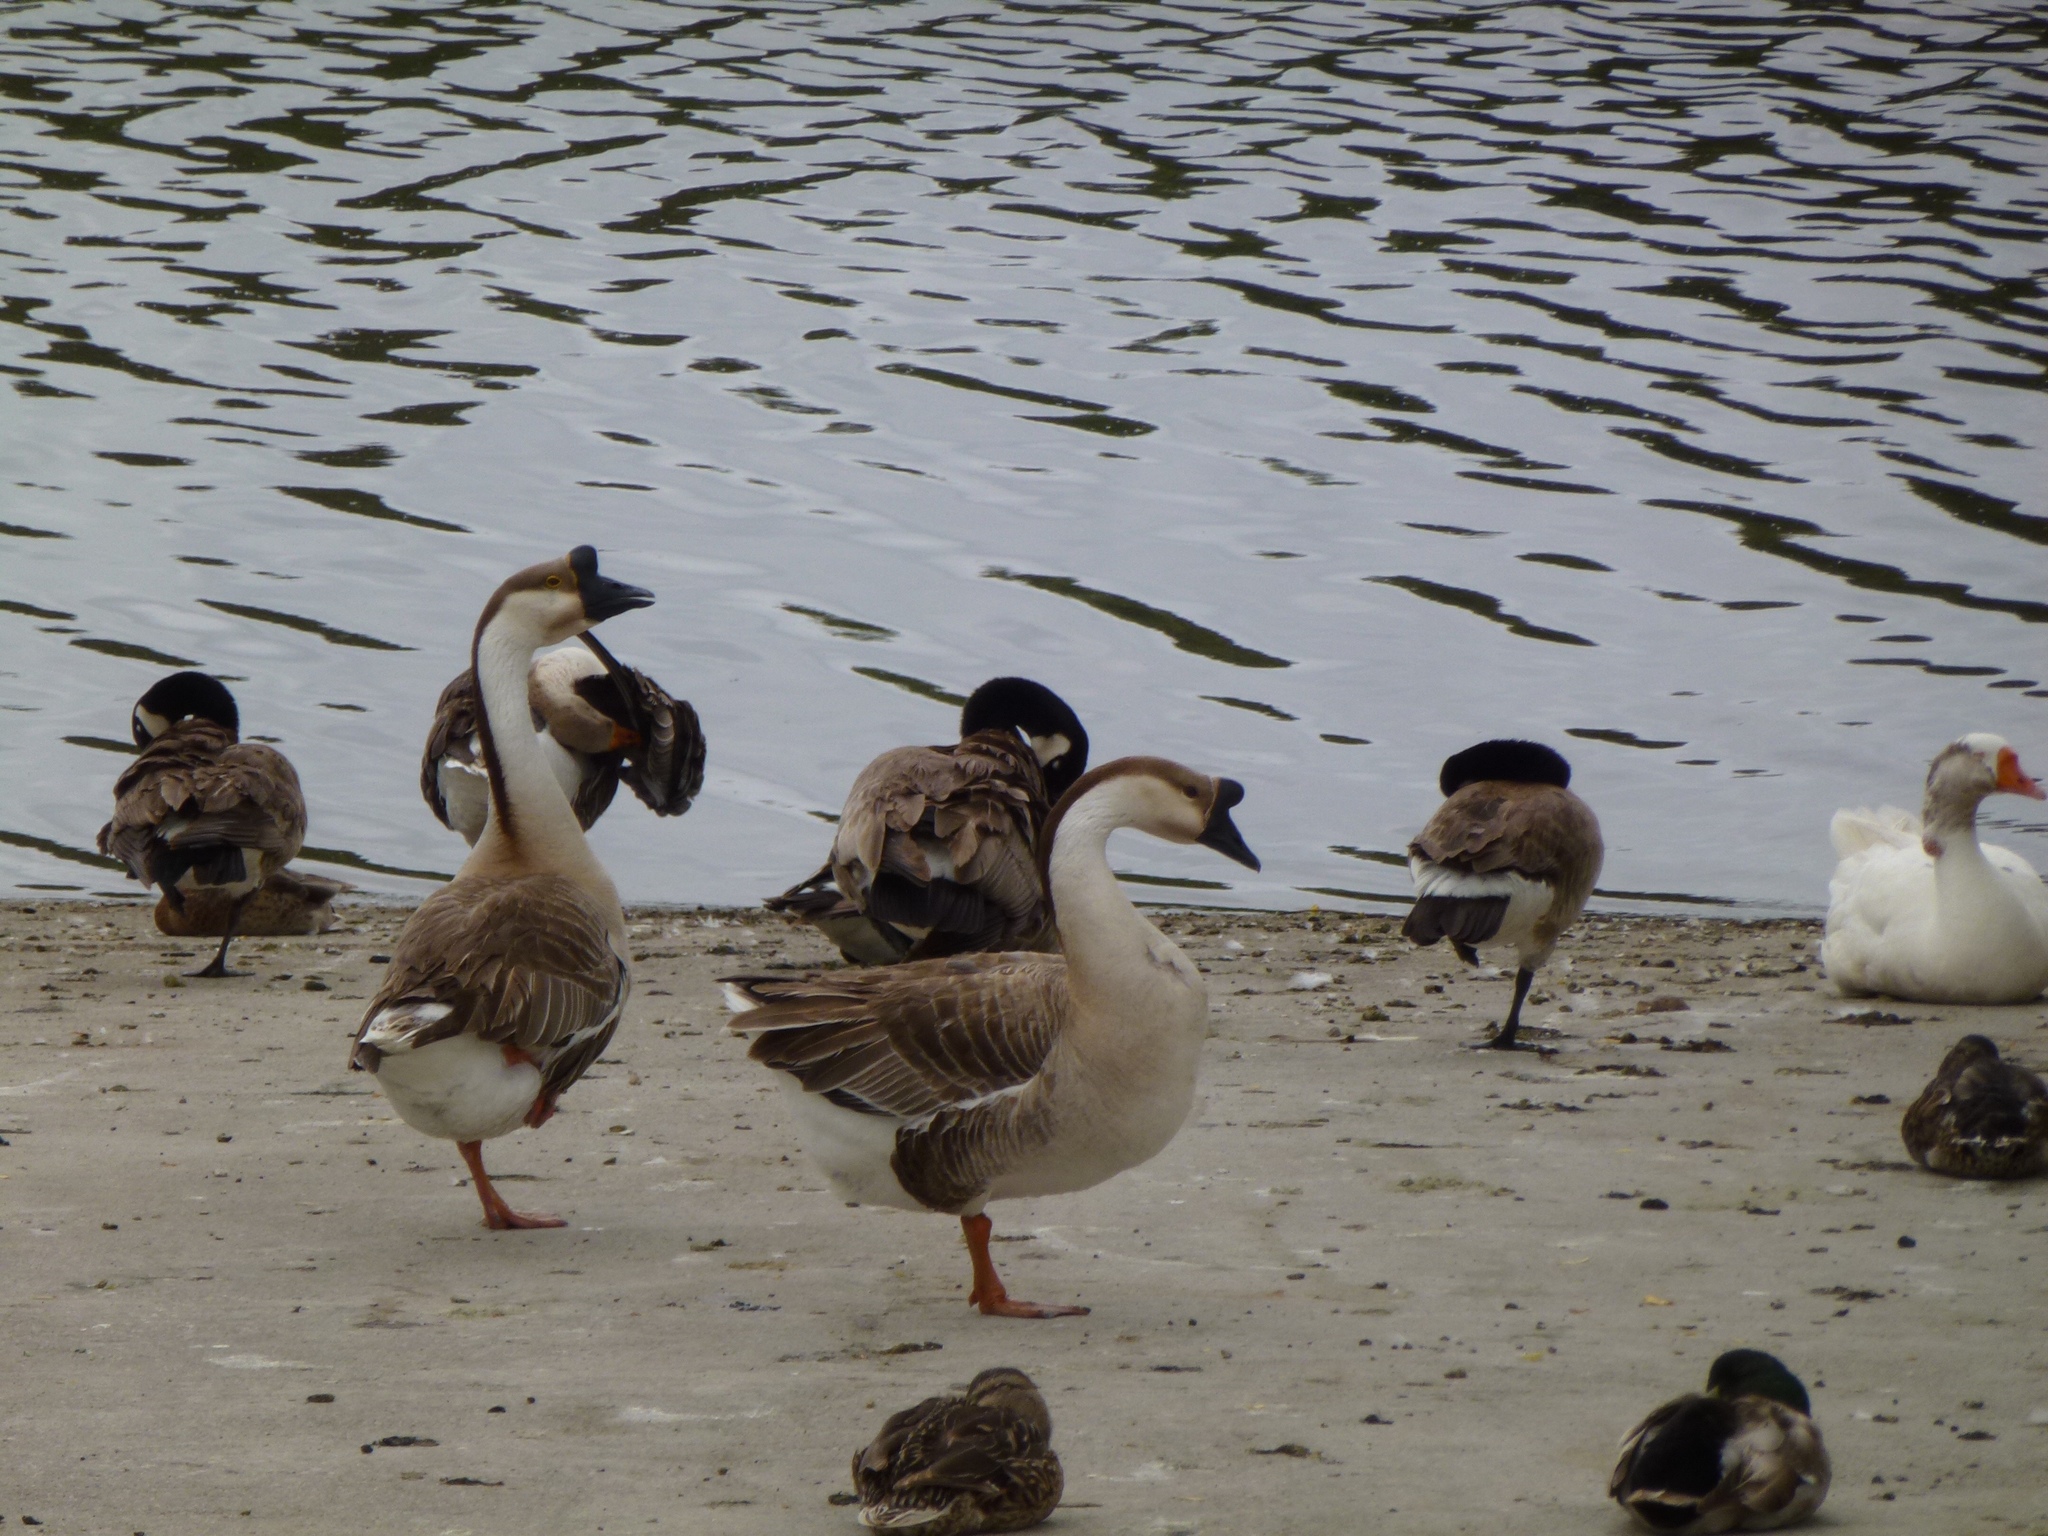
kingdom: Animalia
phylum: Chordata
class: Aves
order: Anseriformes
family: Anatidae
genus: Anser
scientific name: Anser cygnoides
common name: Swan goose
